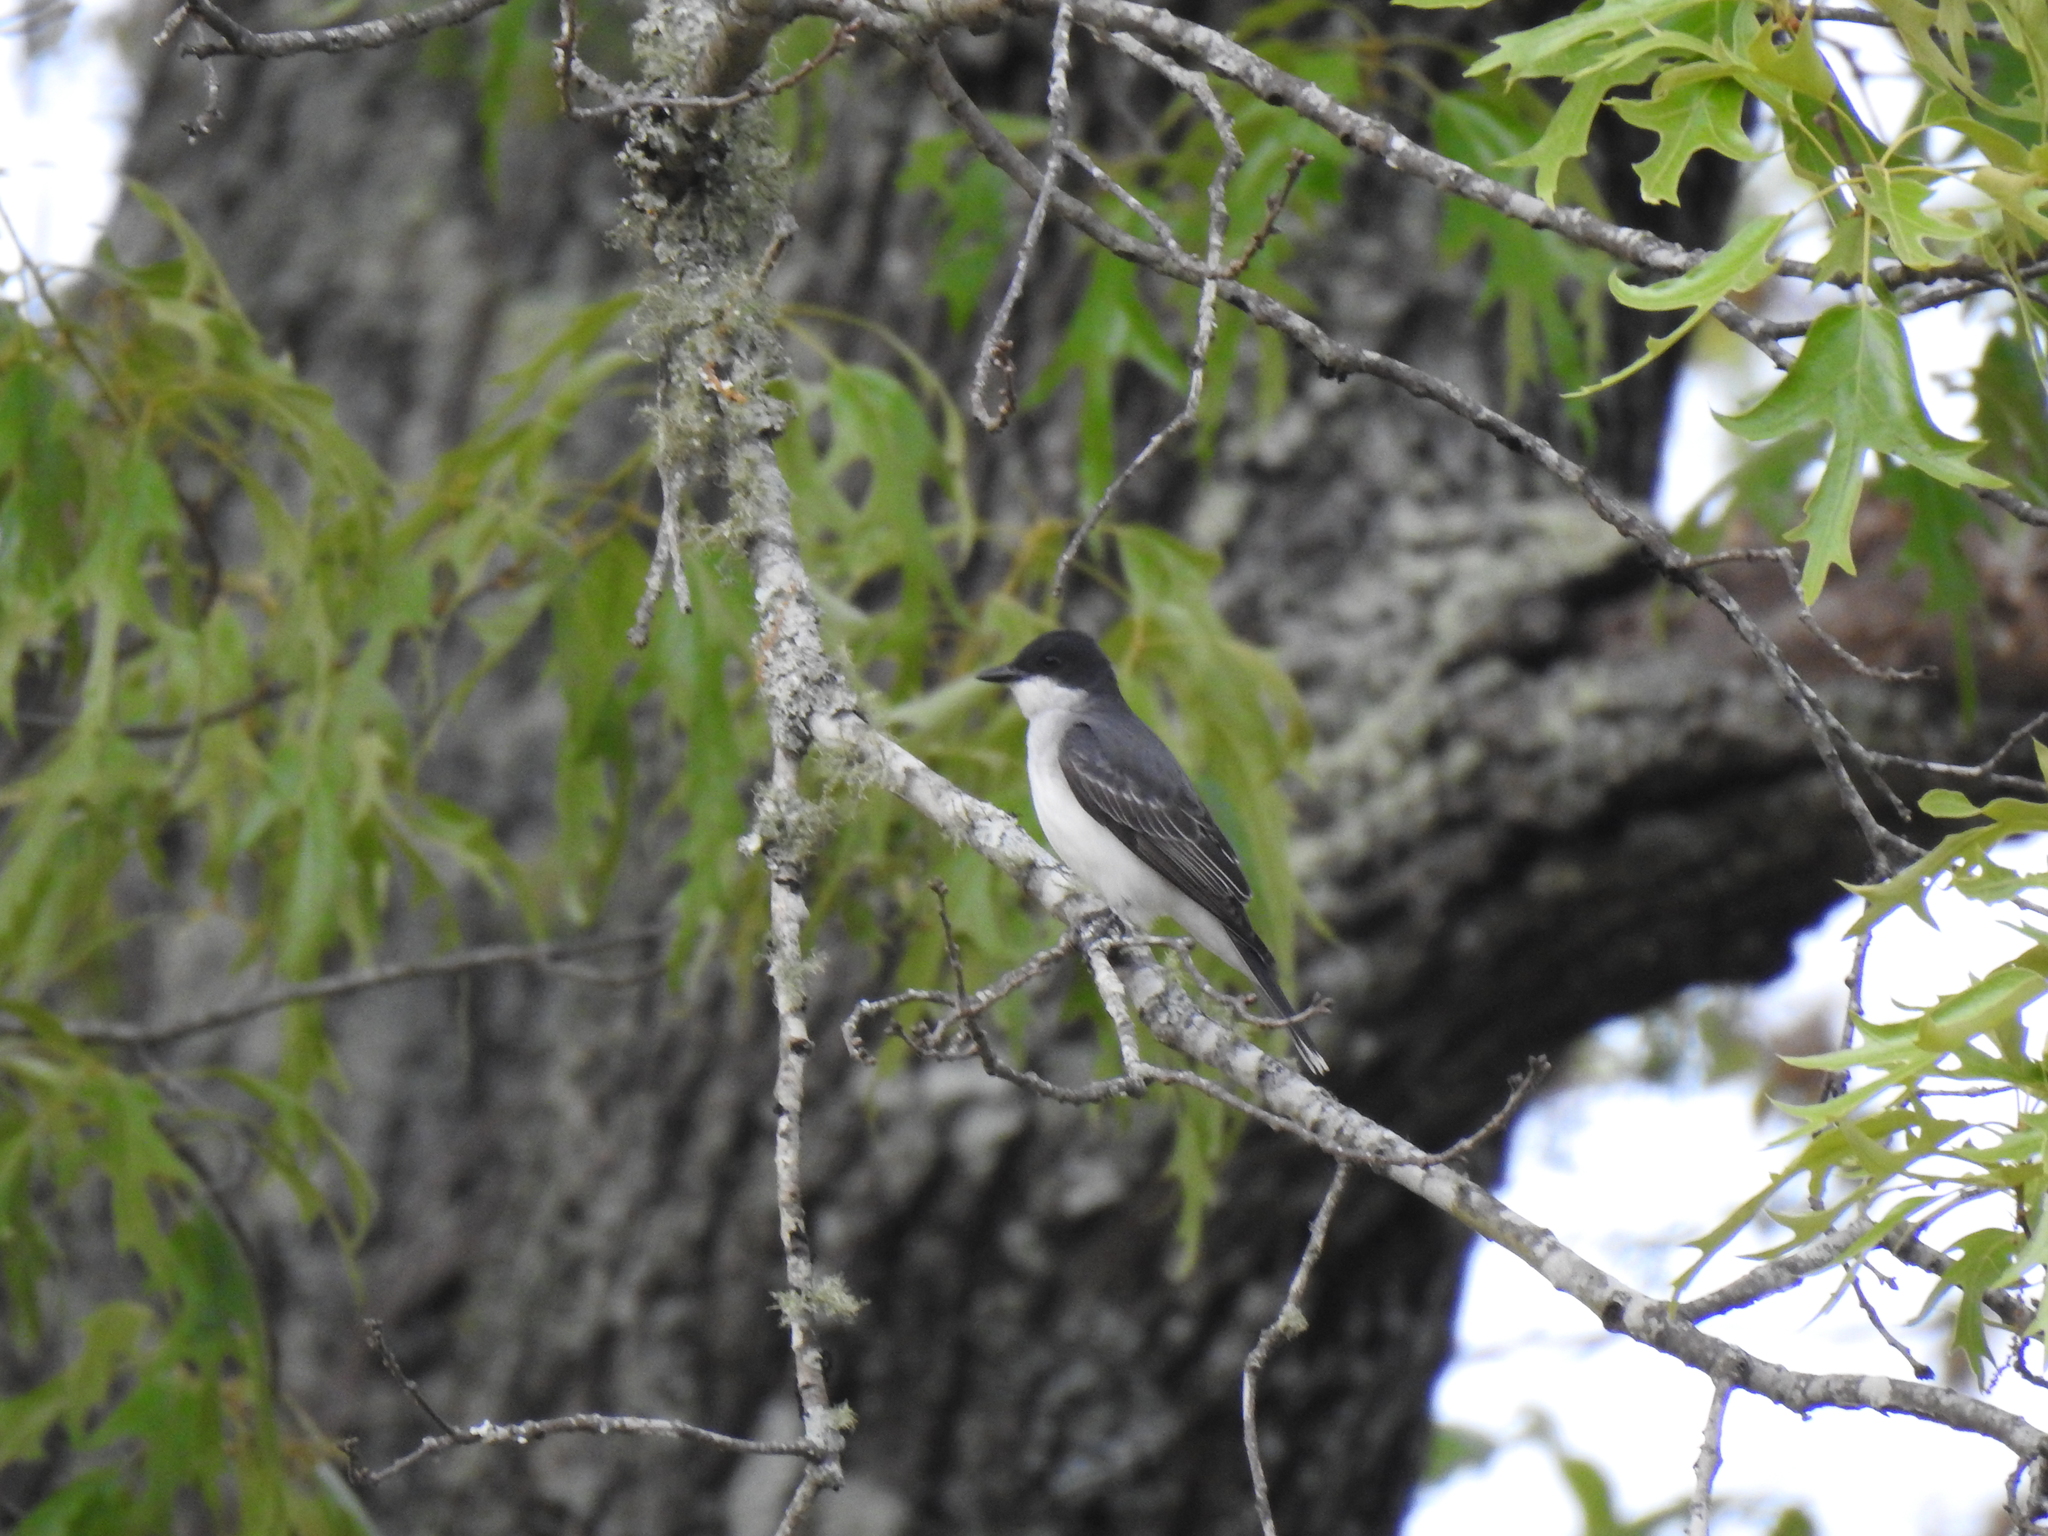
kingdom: Animalia
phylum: Chordata
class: Aves
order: Passeriformes
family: Tyrannidae
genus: Tyrannus
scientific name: Tyrannus tyrannus
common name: Eastern kingbird
